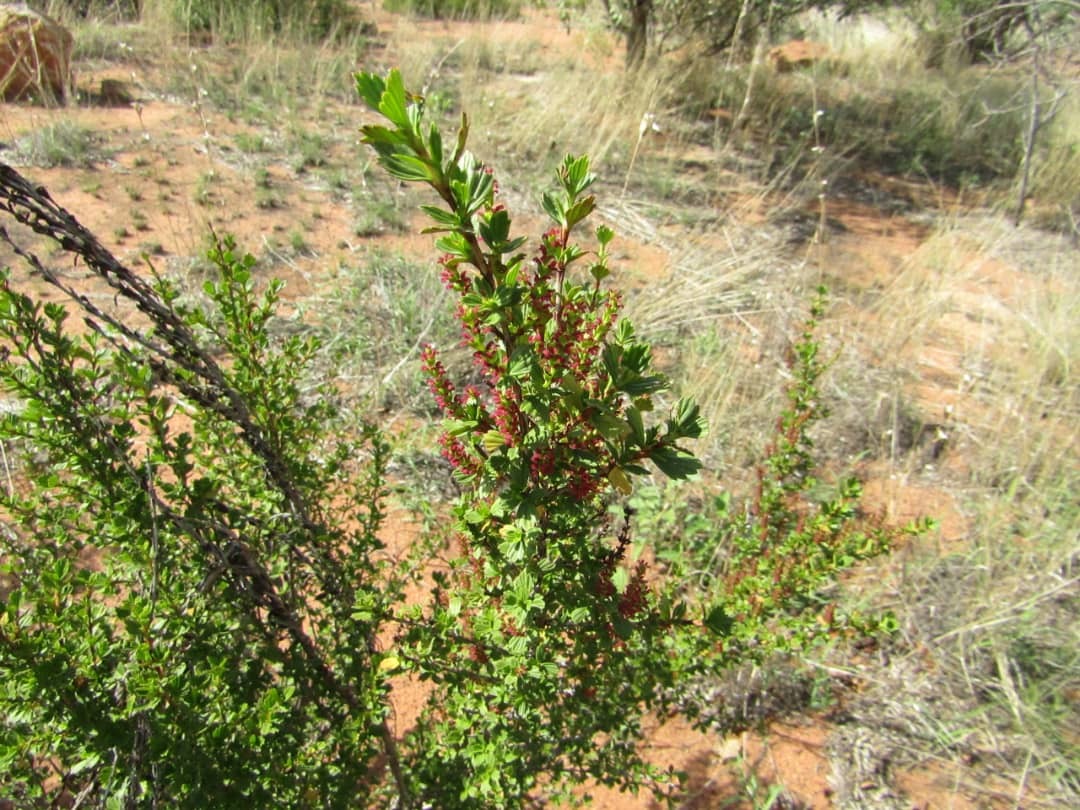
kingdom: Plantae
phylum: Tracheophyta
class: Magnoliopsida
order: Gunnerales
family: Myrothamnaceae
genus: Myrothamnus
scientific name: Myrothamnus flabellifolius
